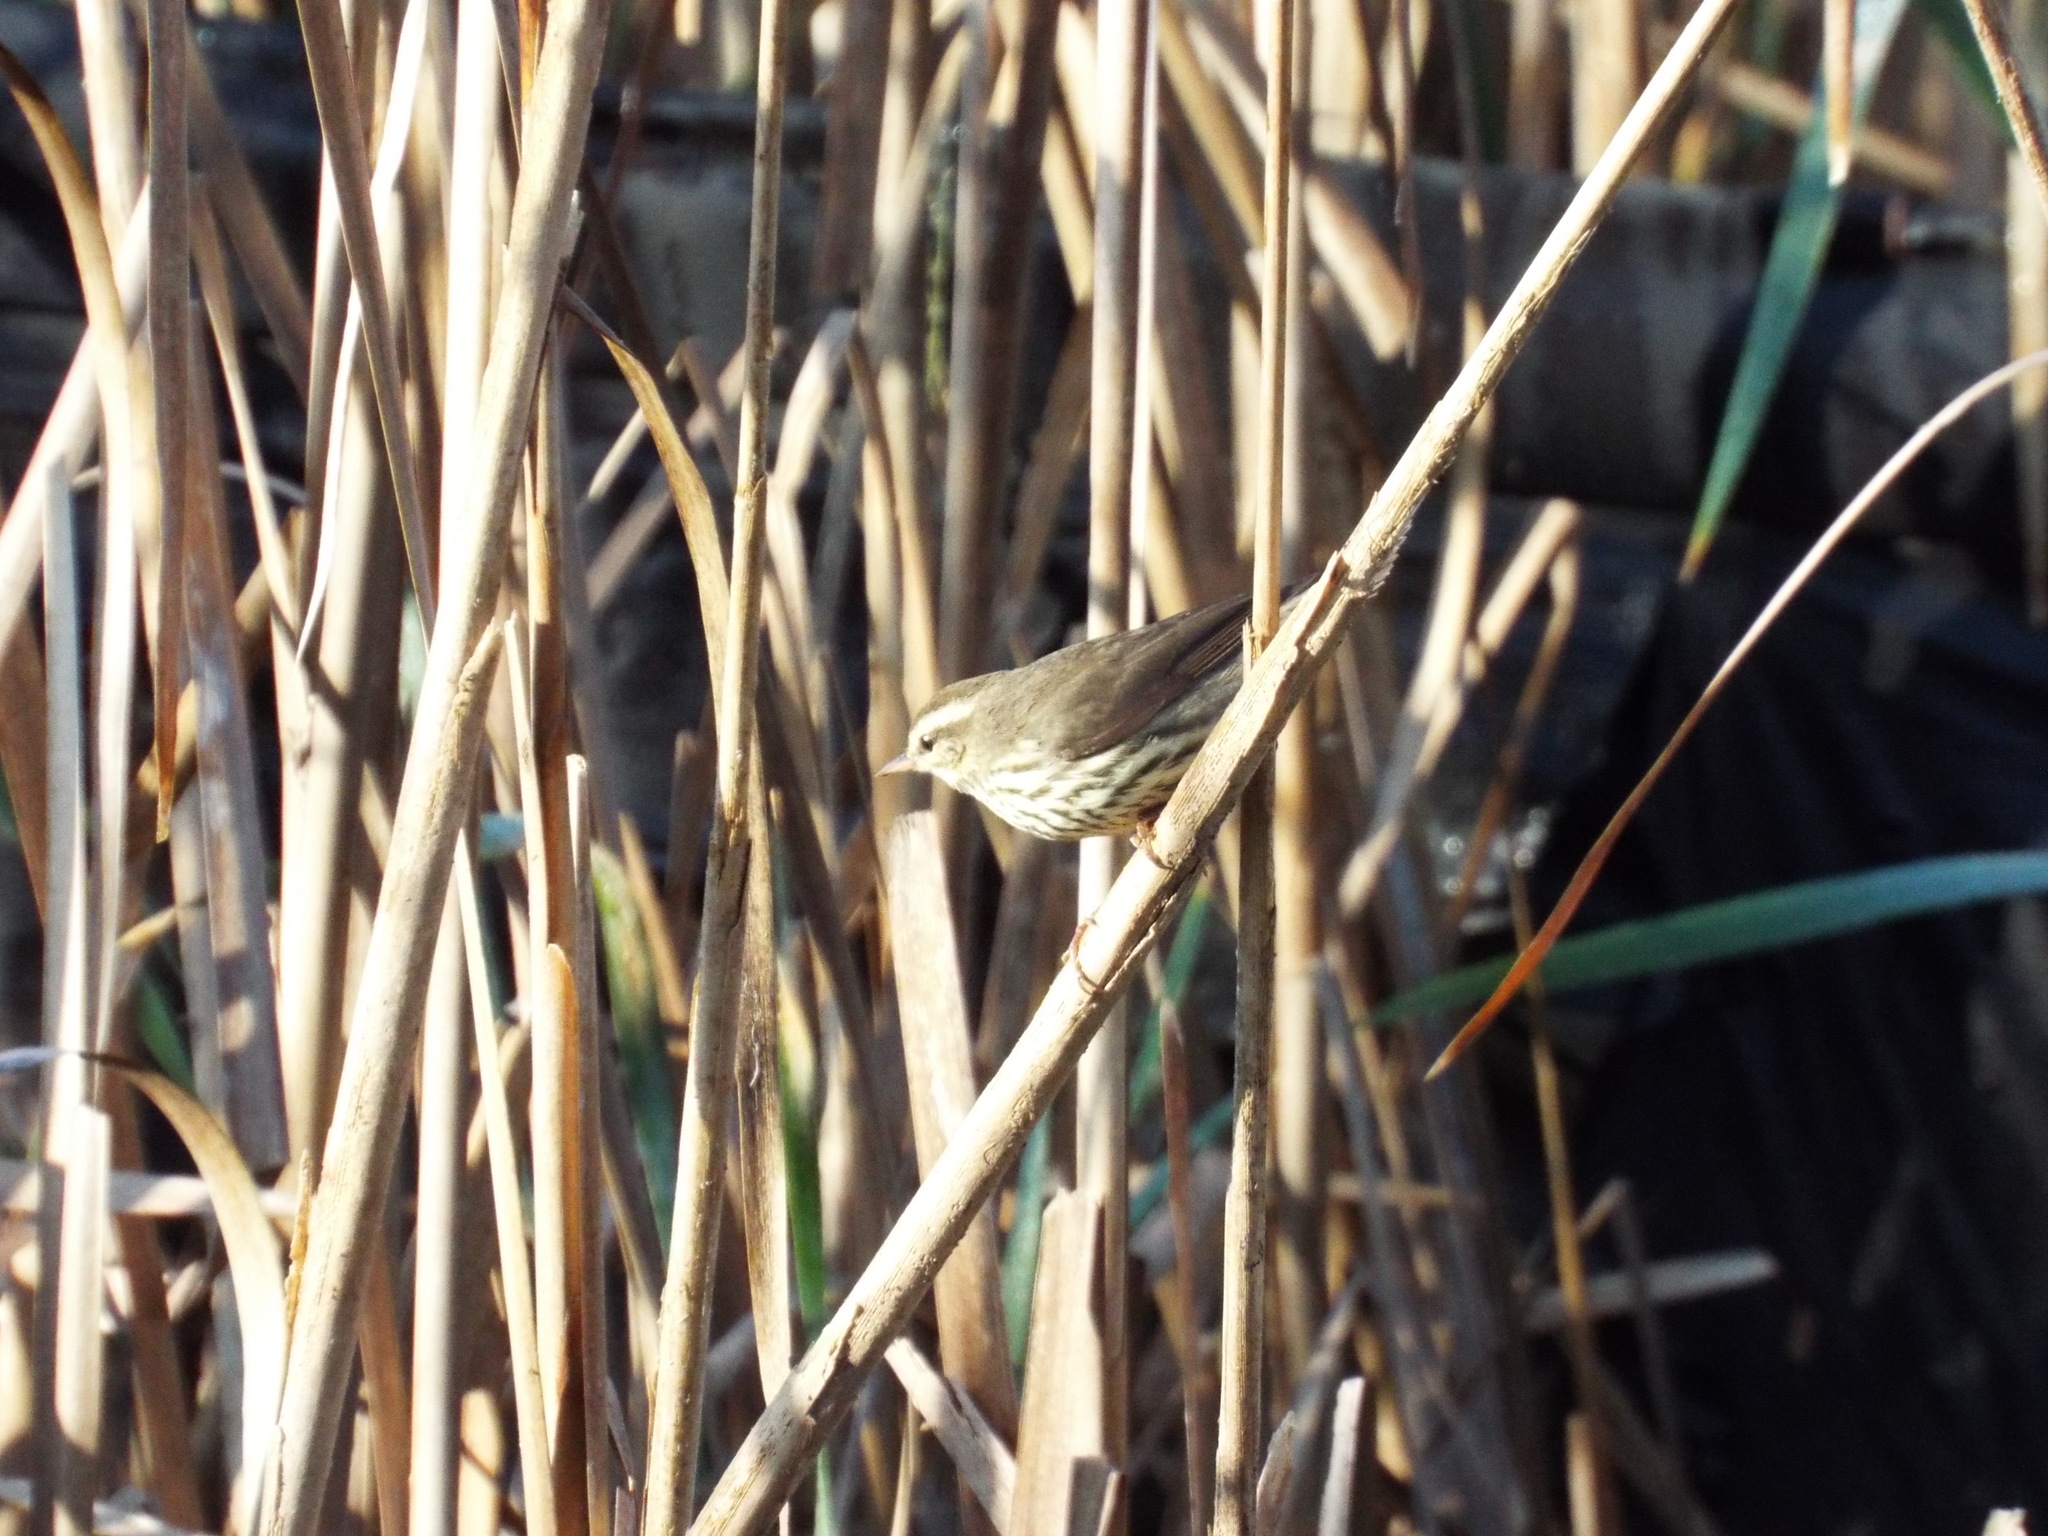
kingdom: Animalia
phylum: Chordata
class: Aves
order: Passeriformes
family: Parulidae
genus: Parkesia
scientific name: Parkesia motacilla
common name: Louisiana waterthrush
